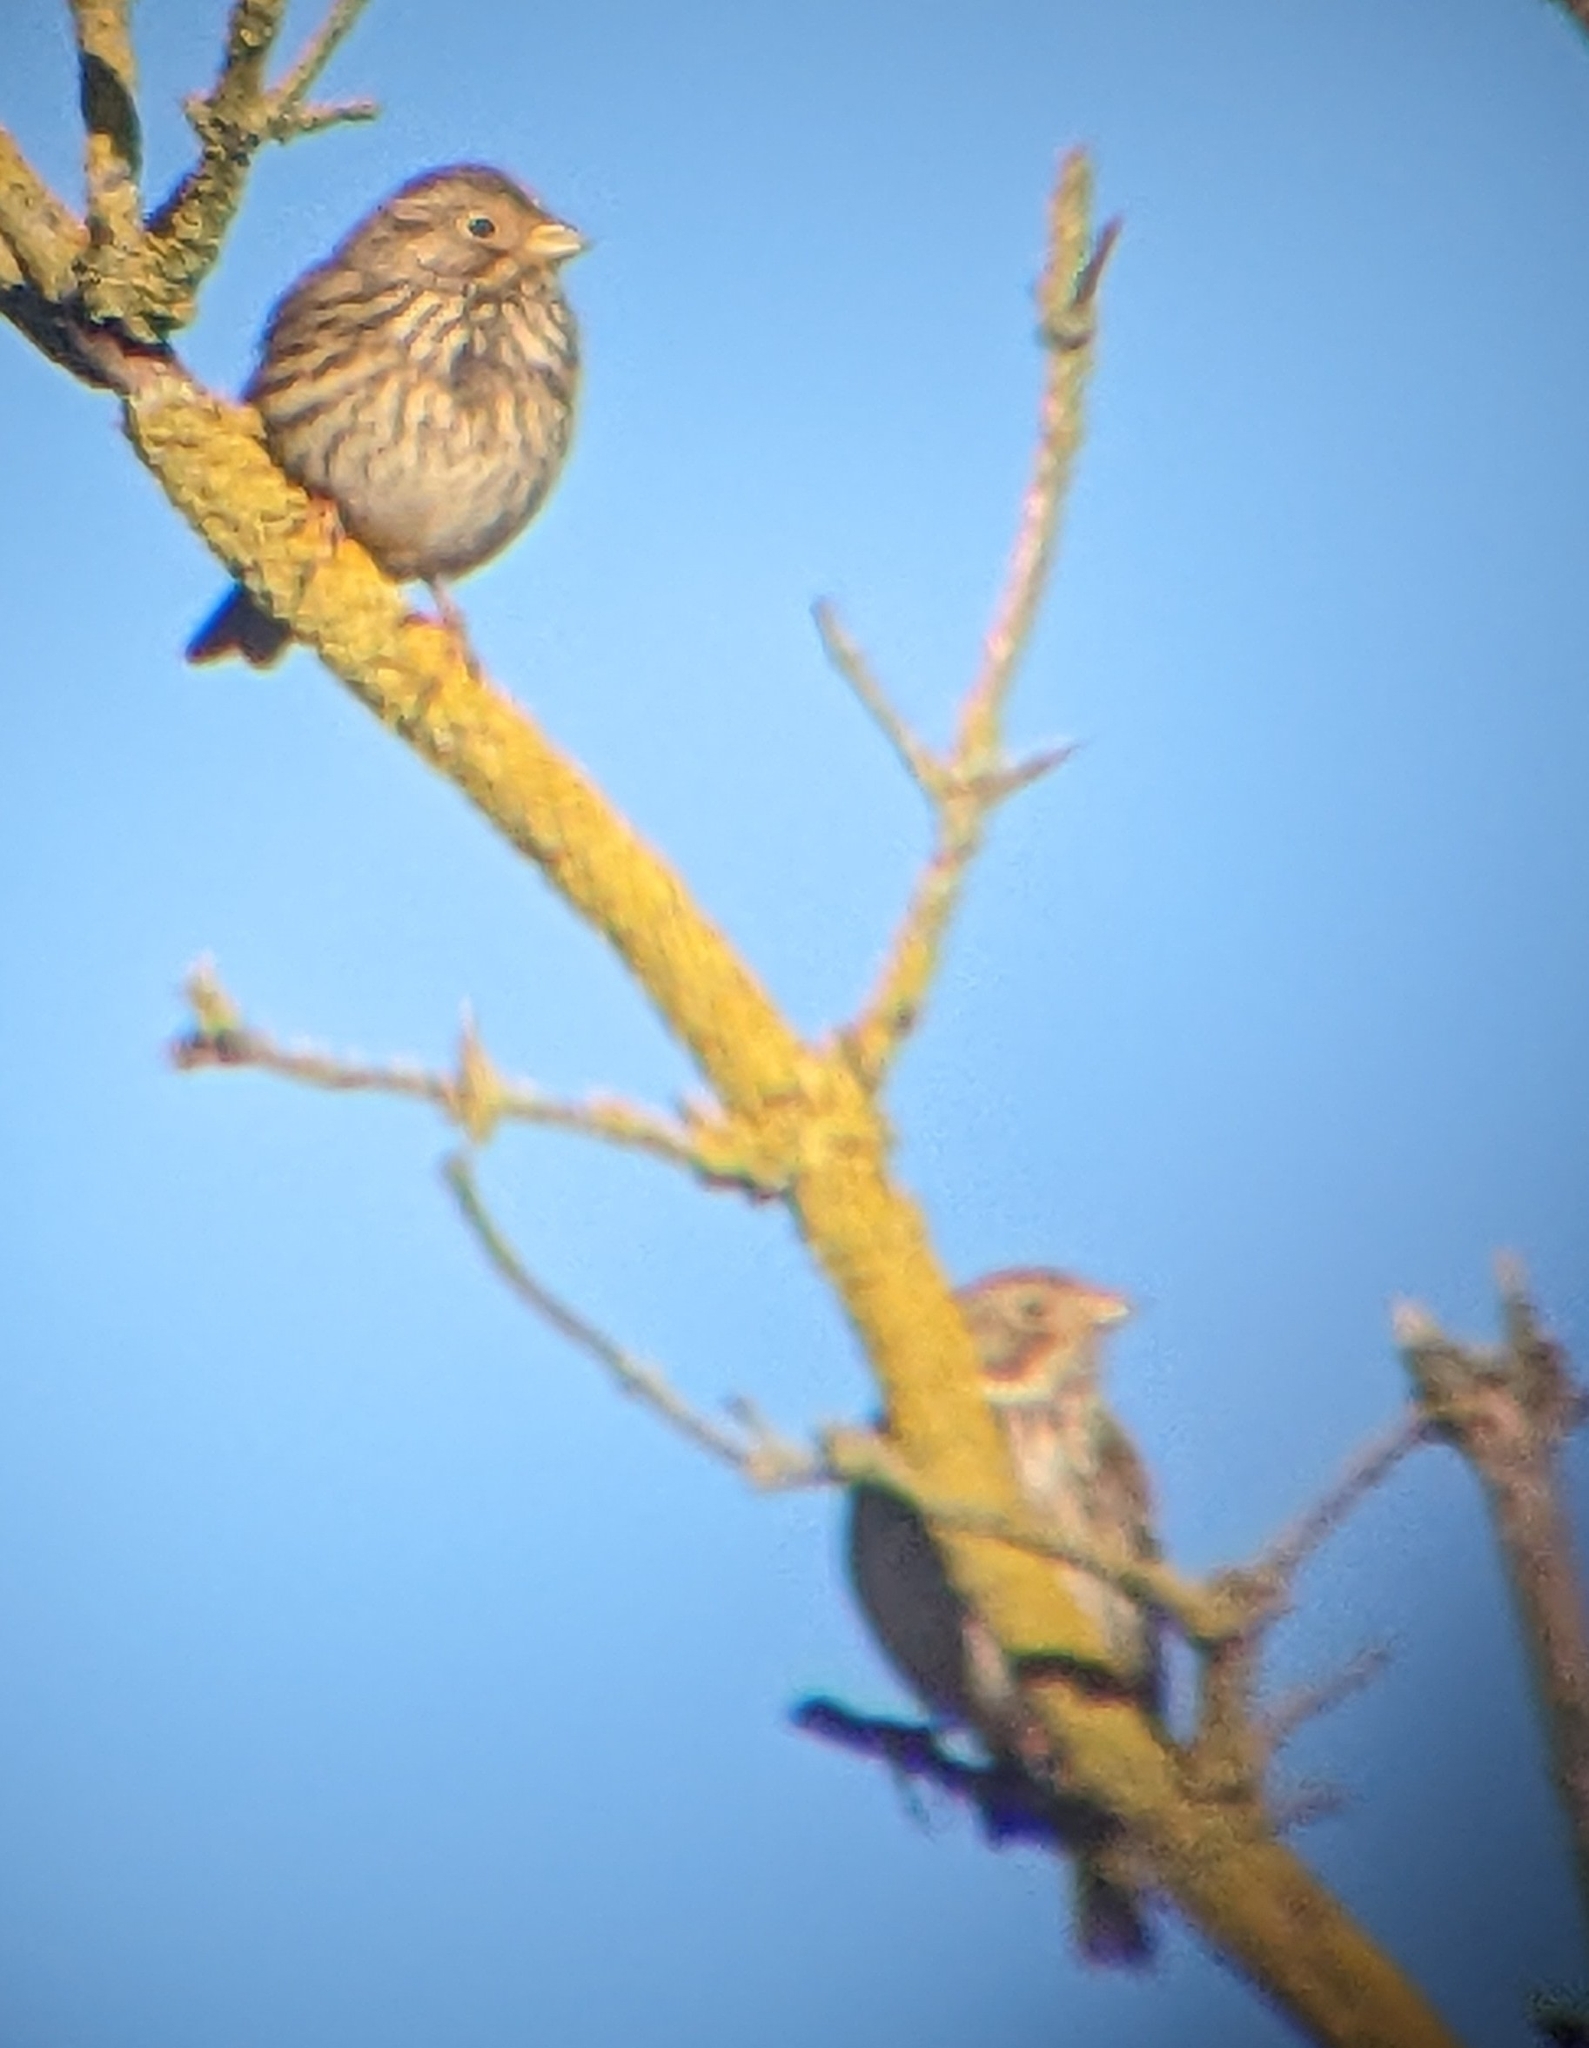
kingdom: Animalia
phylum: Chordata
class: Aves
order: Passeriformes
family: Emberizidae
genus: Emberiza
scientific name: Emberiza calandra
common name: Corn bunting
